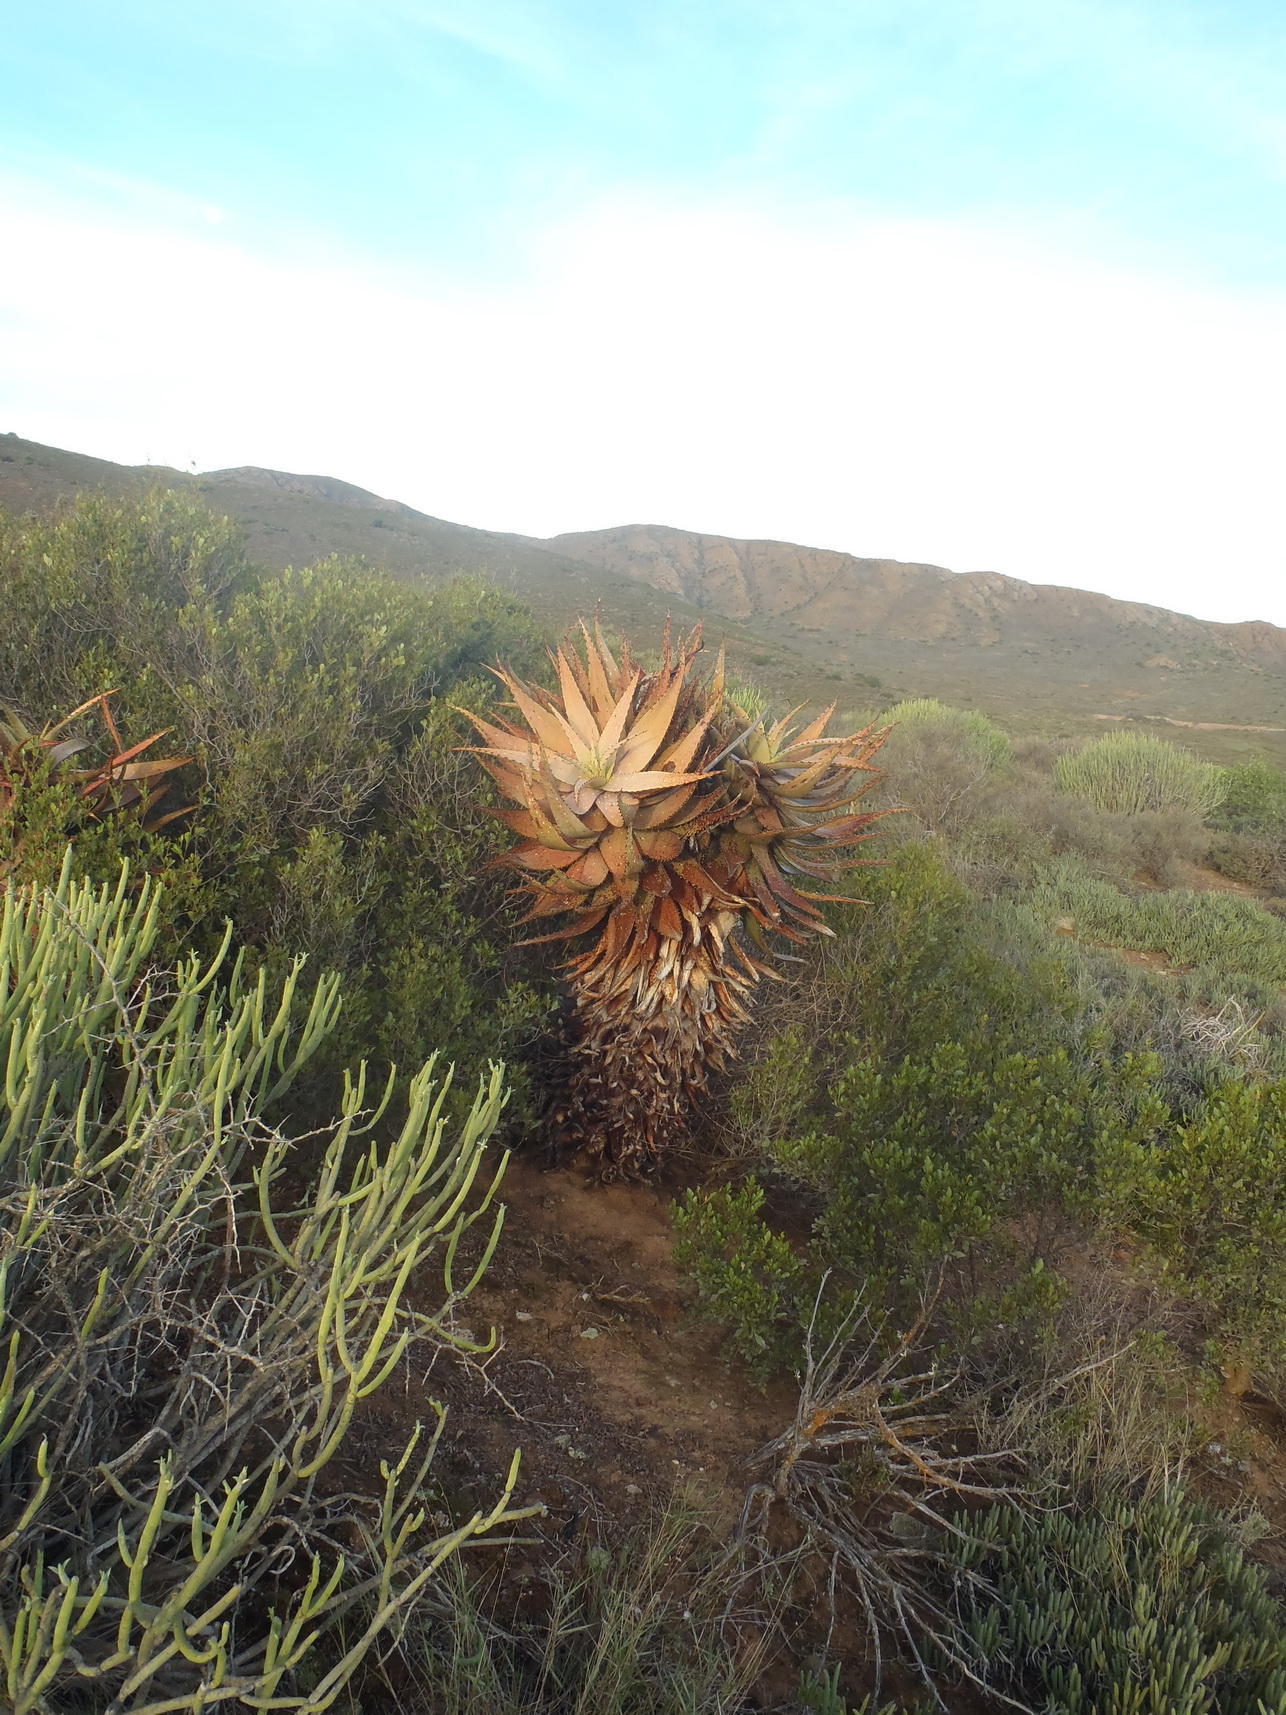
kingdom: Plantae
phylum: Tracheophyta
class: Liliopsida
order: Asparagales
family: Asphodelaceae
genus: Aloe
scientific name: Aloe microstigma
